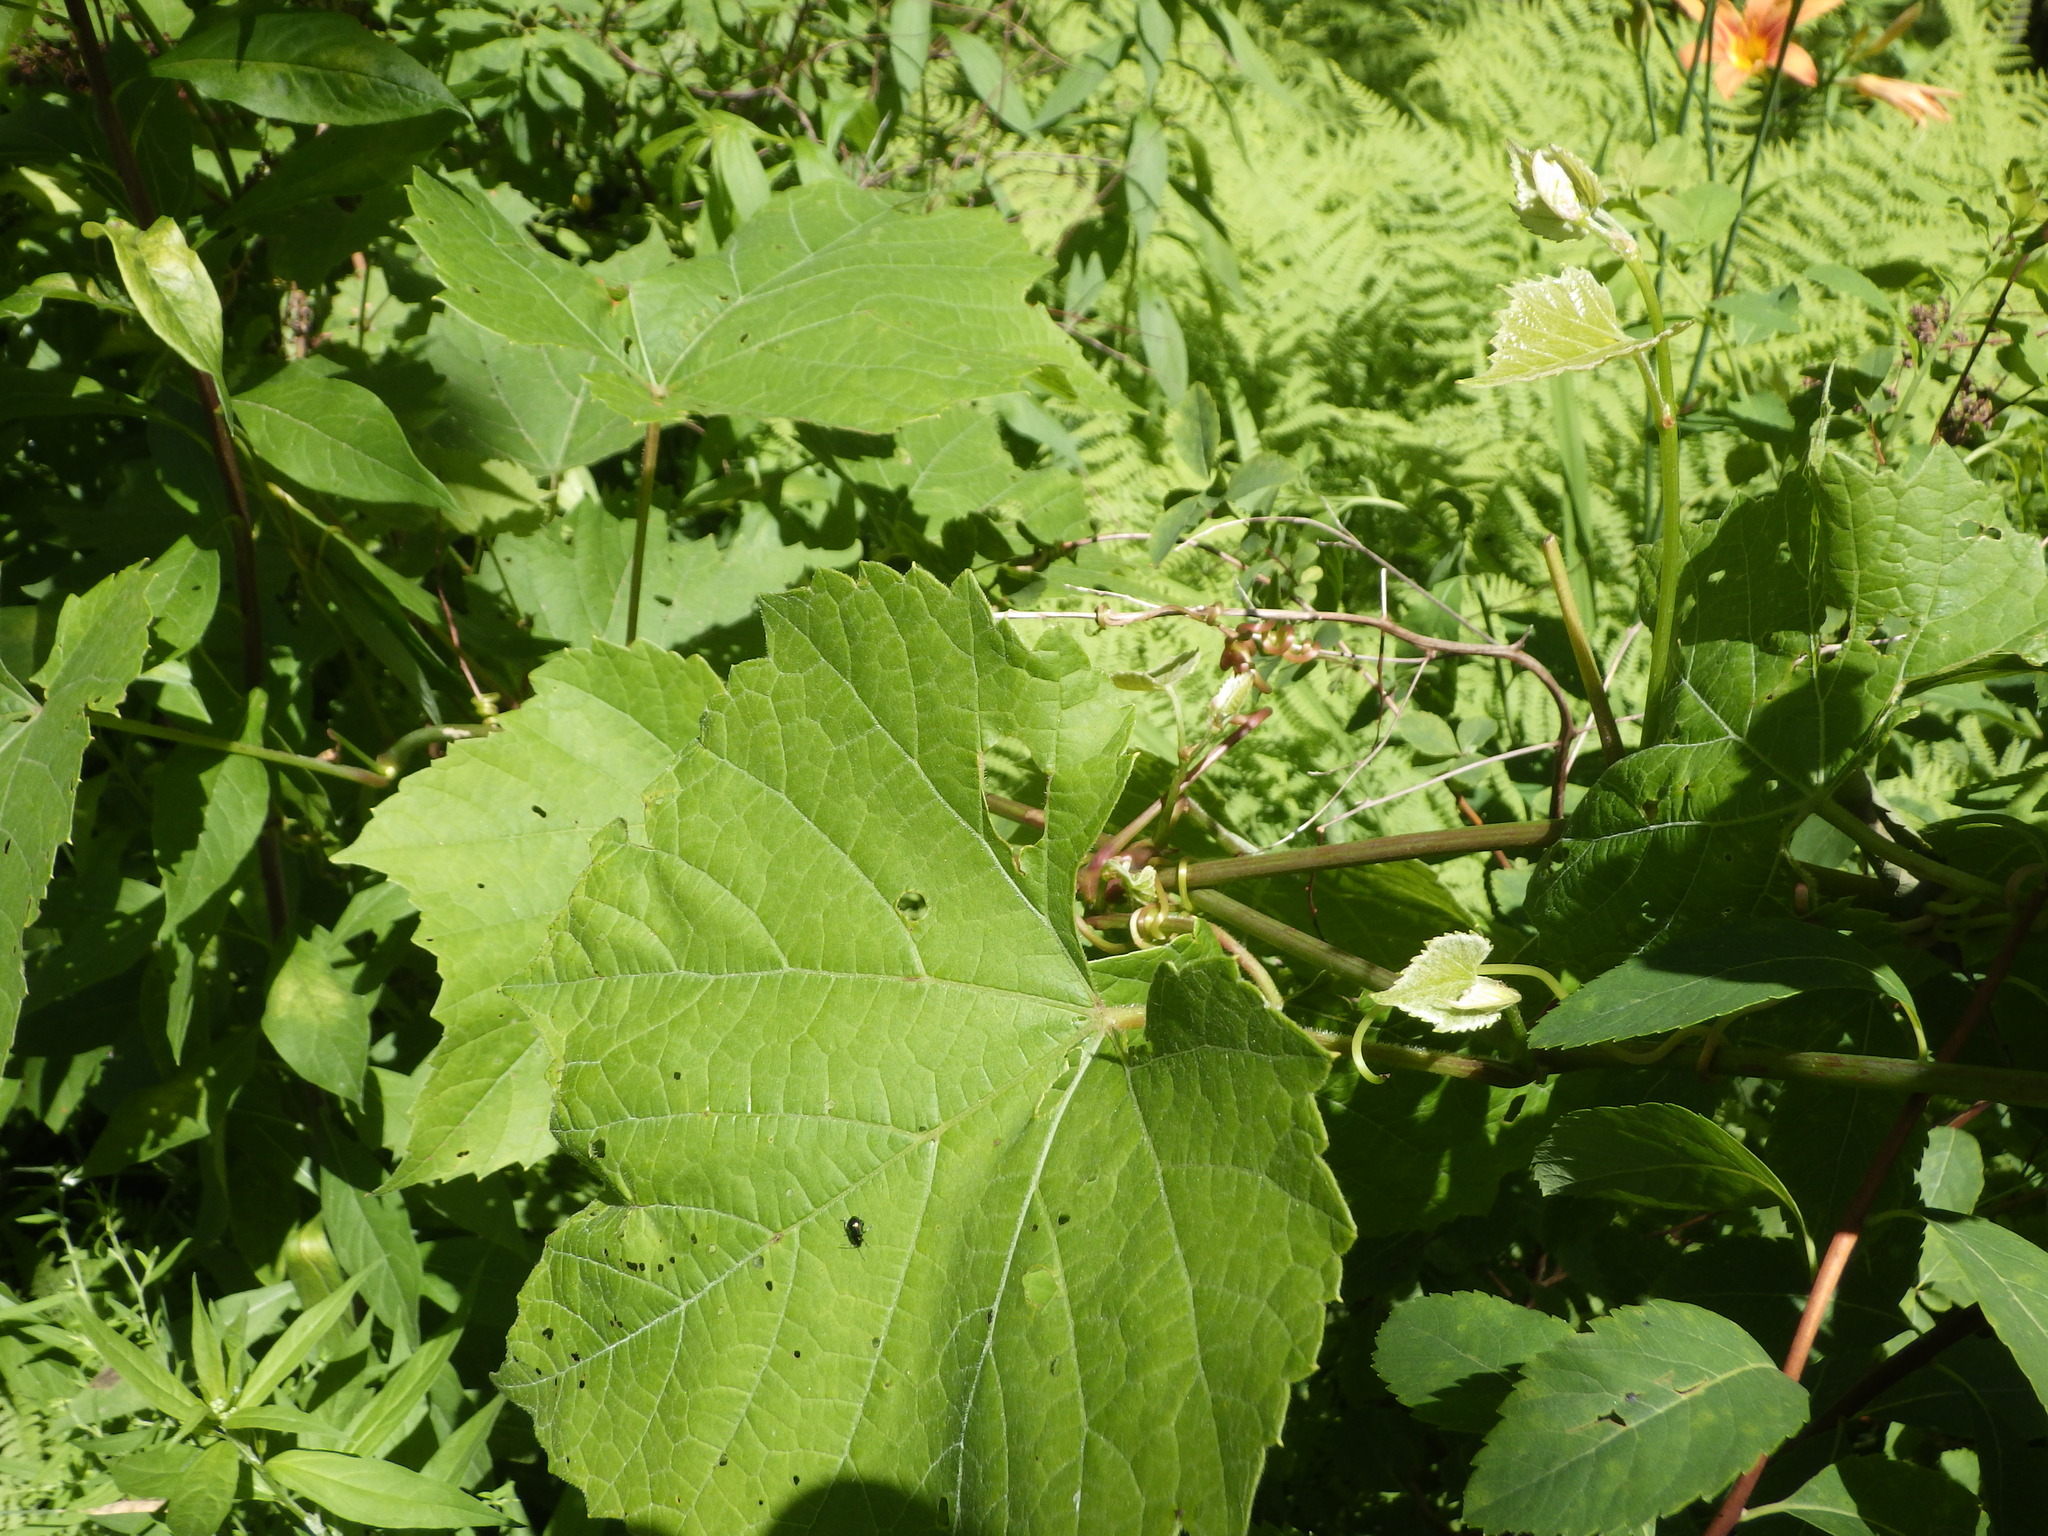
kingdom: Plantae
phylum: Tracheophyta
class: Magnoliopsida
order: Vitales
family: Vitaceae
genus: Vitis
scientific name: Vitis riparia
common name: Frost grape
